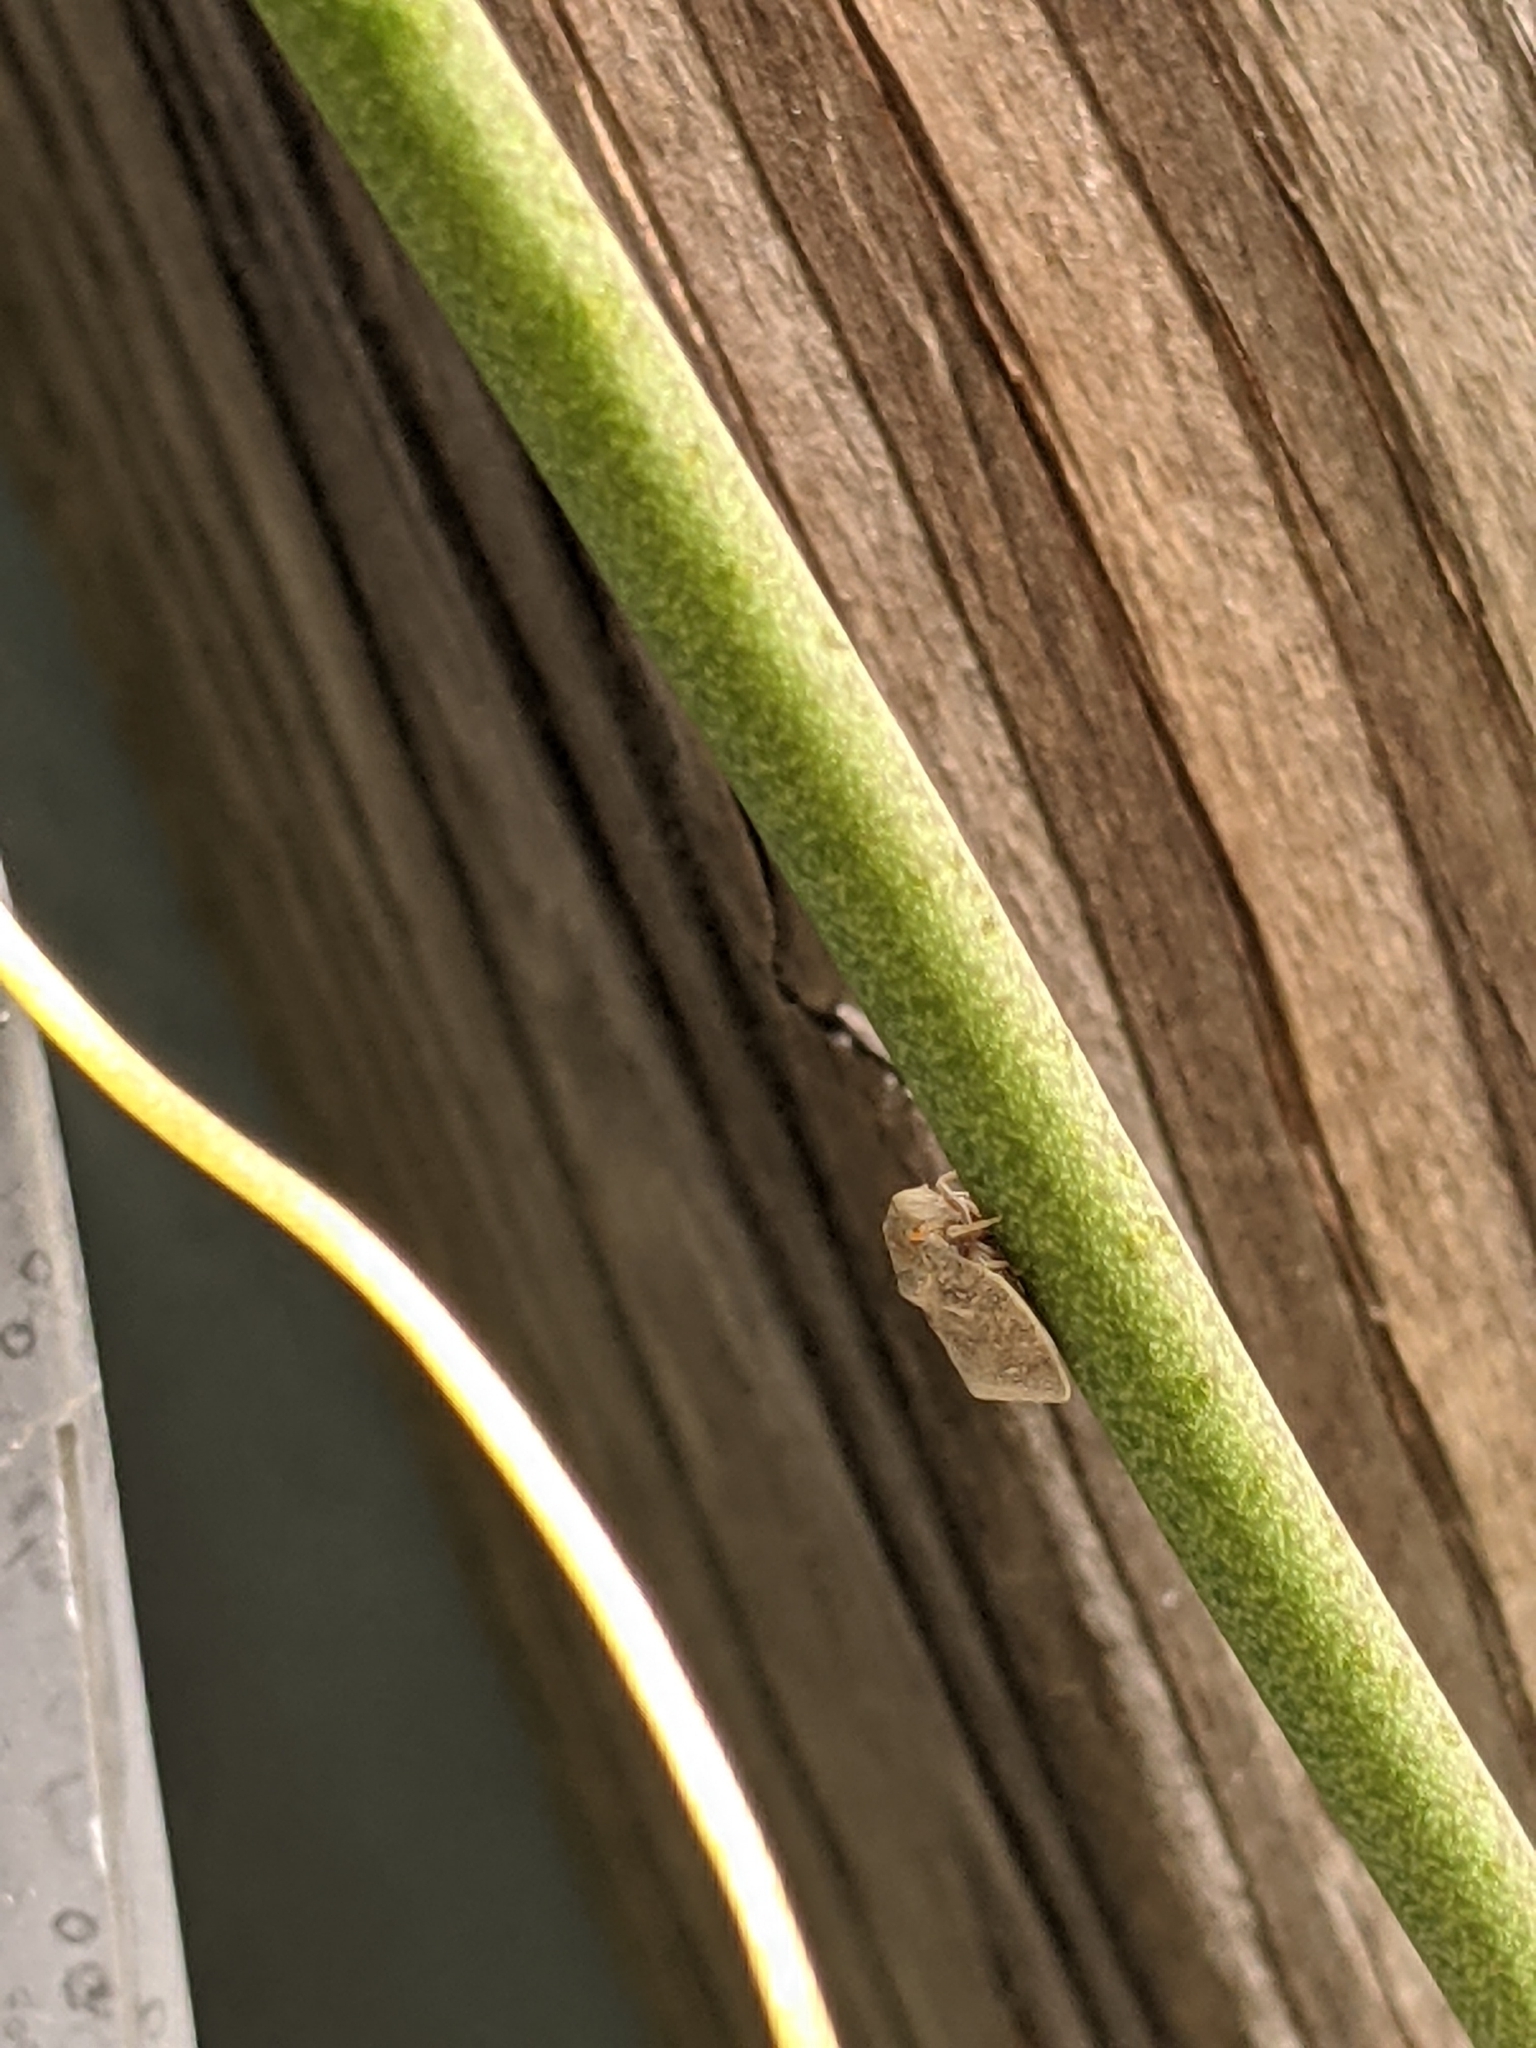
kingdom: Animalia
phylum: Arthropoda
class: Insecta
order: Hemiptera
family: Flatidae
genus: Metcalfa
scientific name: Metcalfa pruinosa
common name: Citrus flatid planthopper
